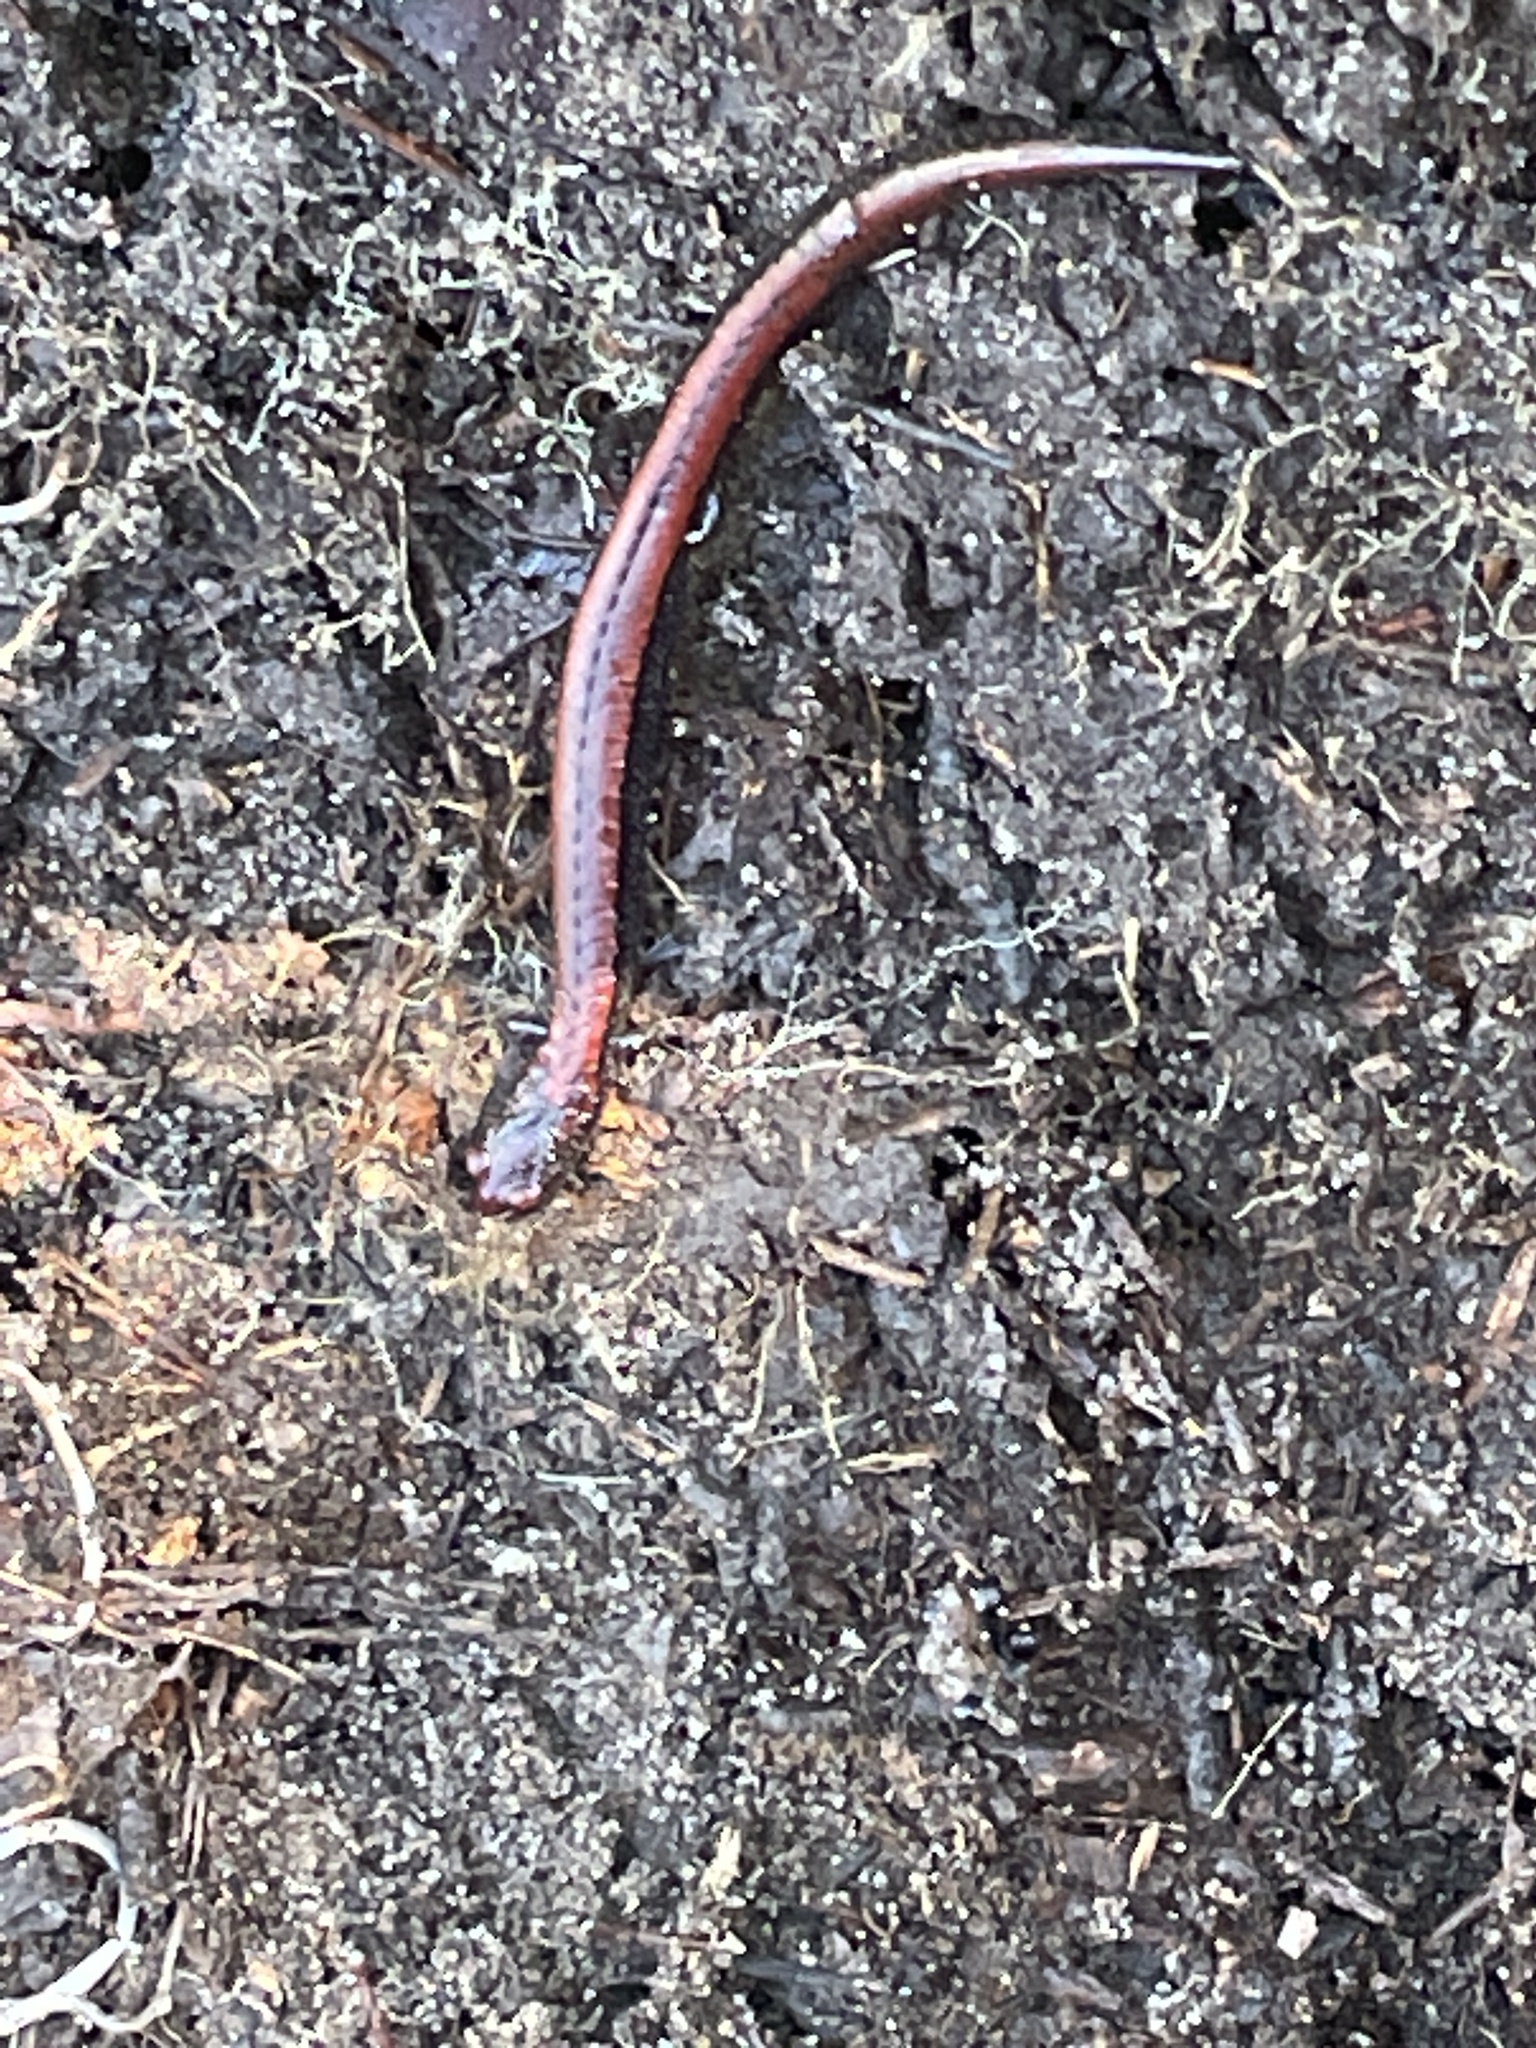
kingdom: Animalia
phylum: Chordata
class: Amphibia
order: Caudata
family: Plethodontidae
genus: Batrachoseps
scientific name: Batrachoseps luciae
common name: Santa lucia mountains slender salamander
